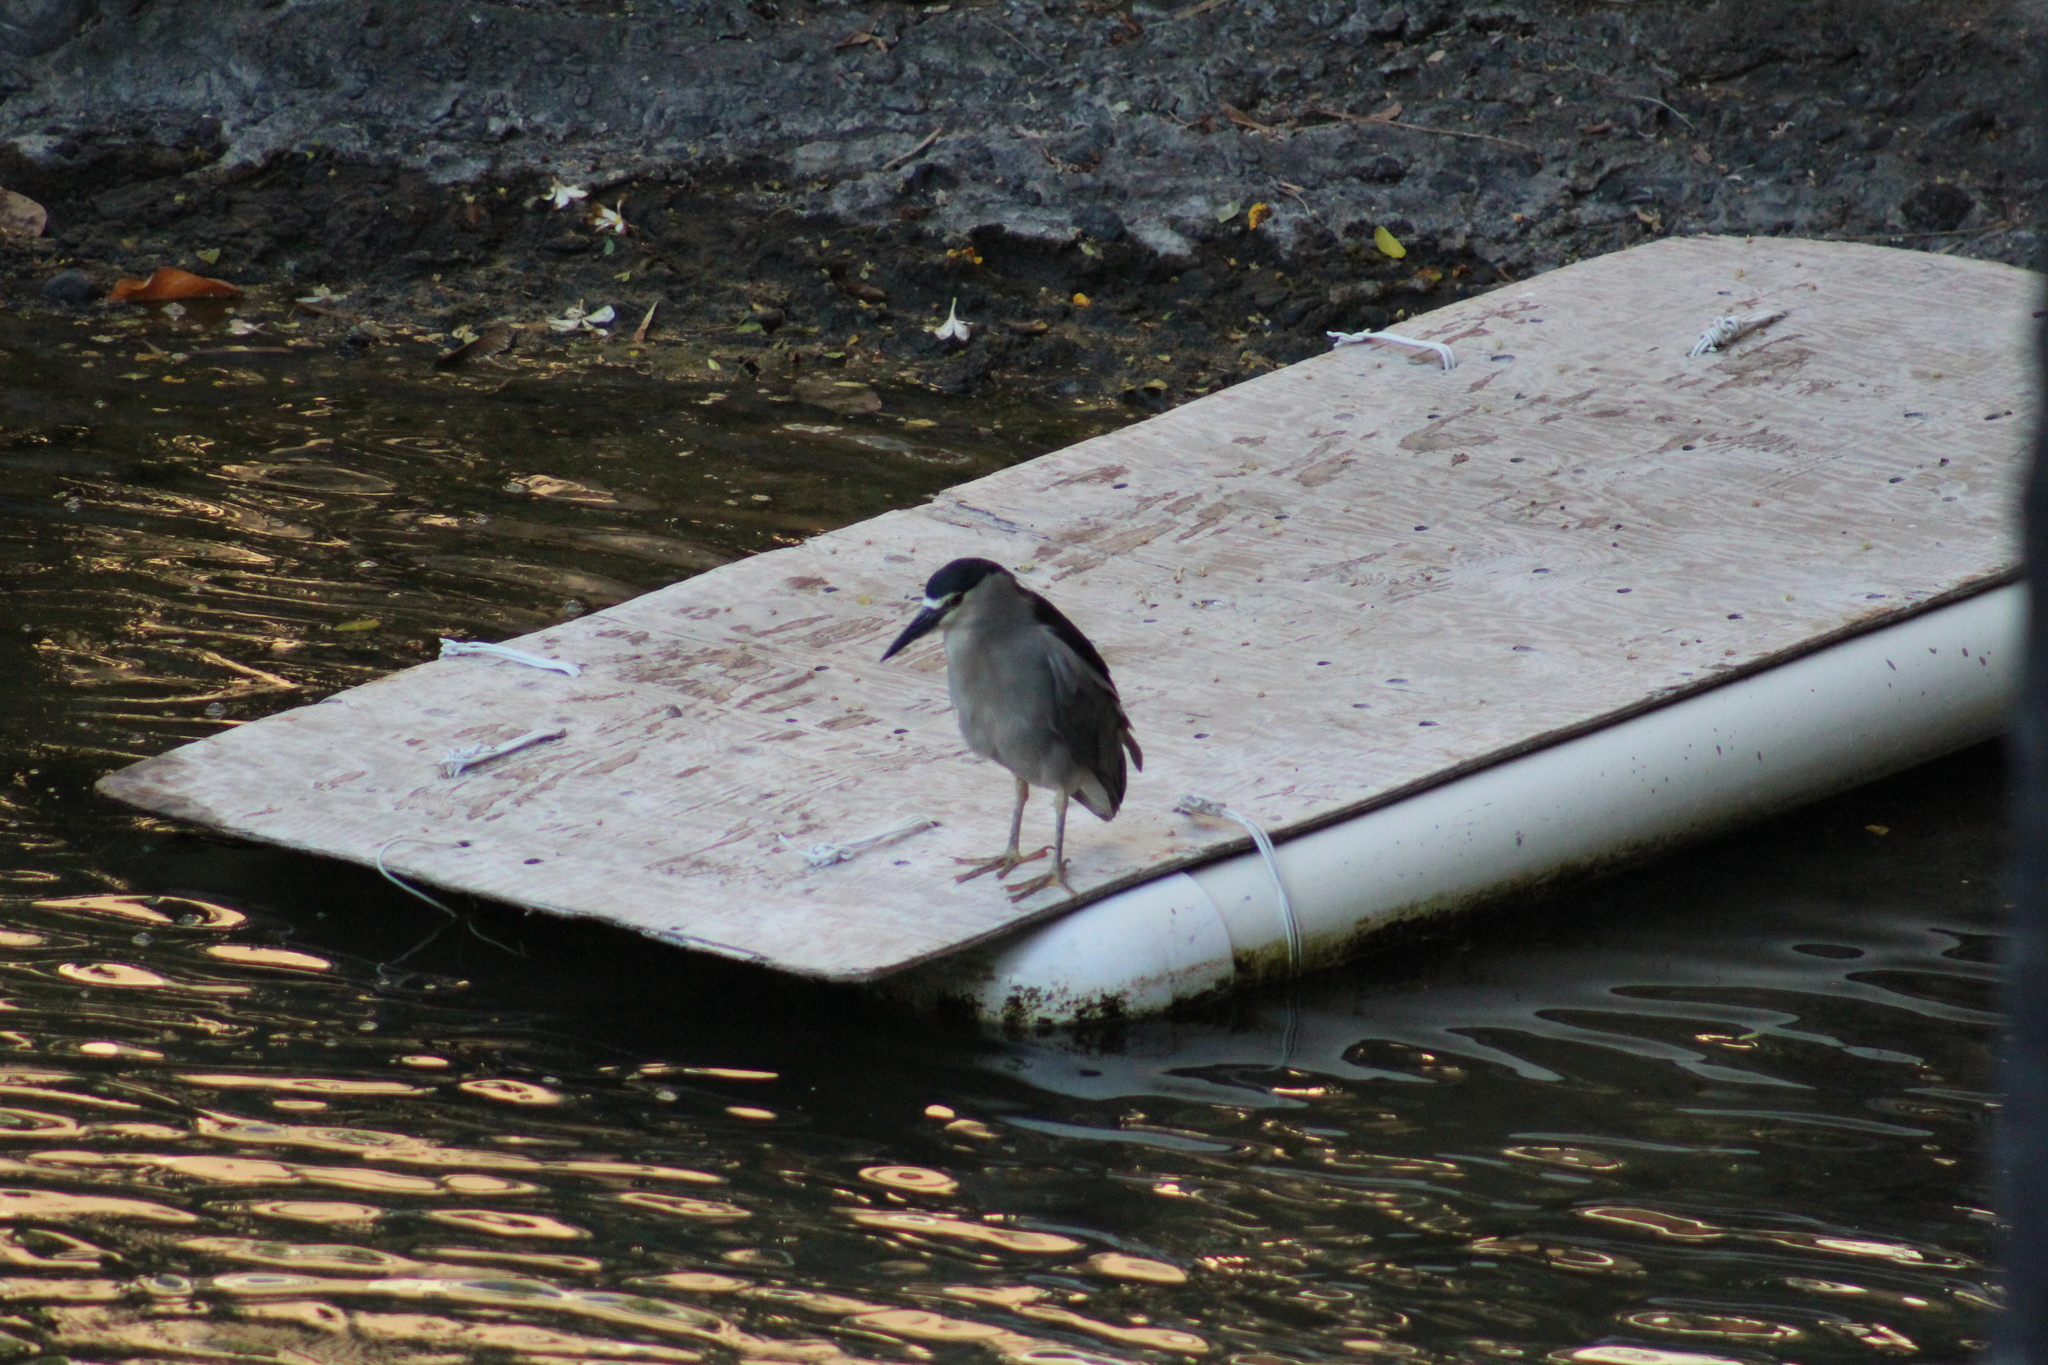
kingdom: Animalia
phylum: Chordata
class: Aves
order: Pelecaniformes
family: Ardeidae
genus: Nycticorax
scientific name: Nycticorax nycticorax
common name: Black-crowned night heron
